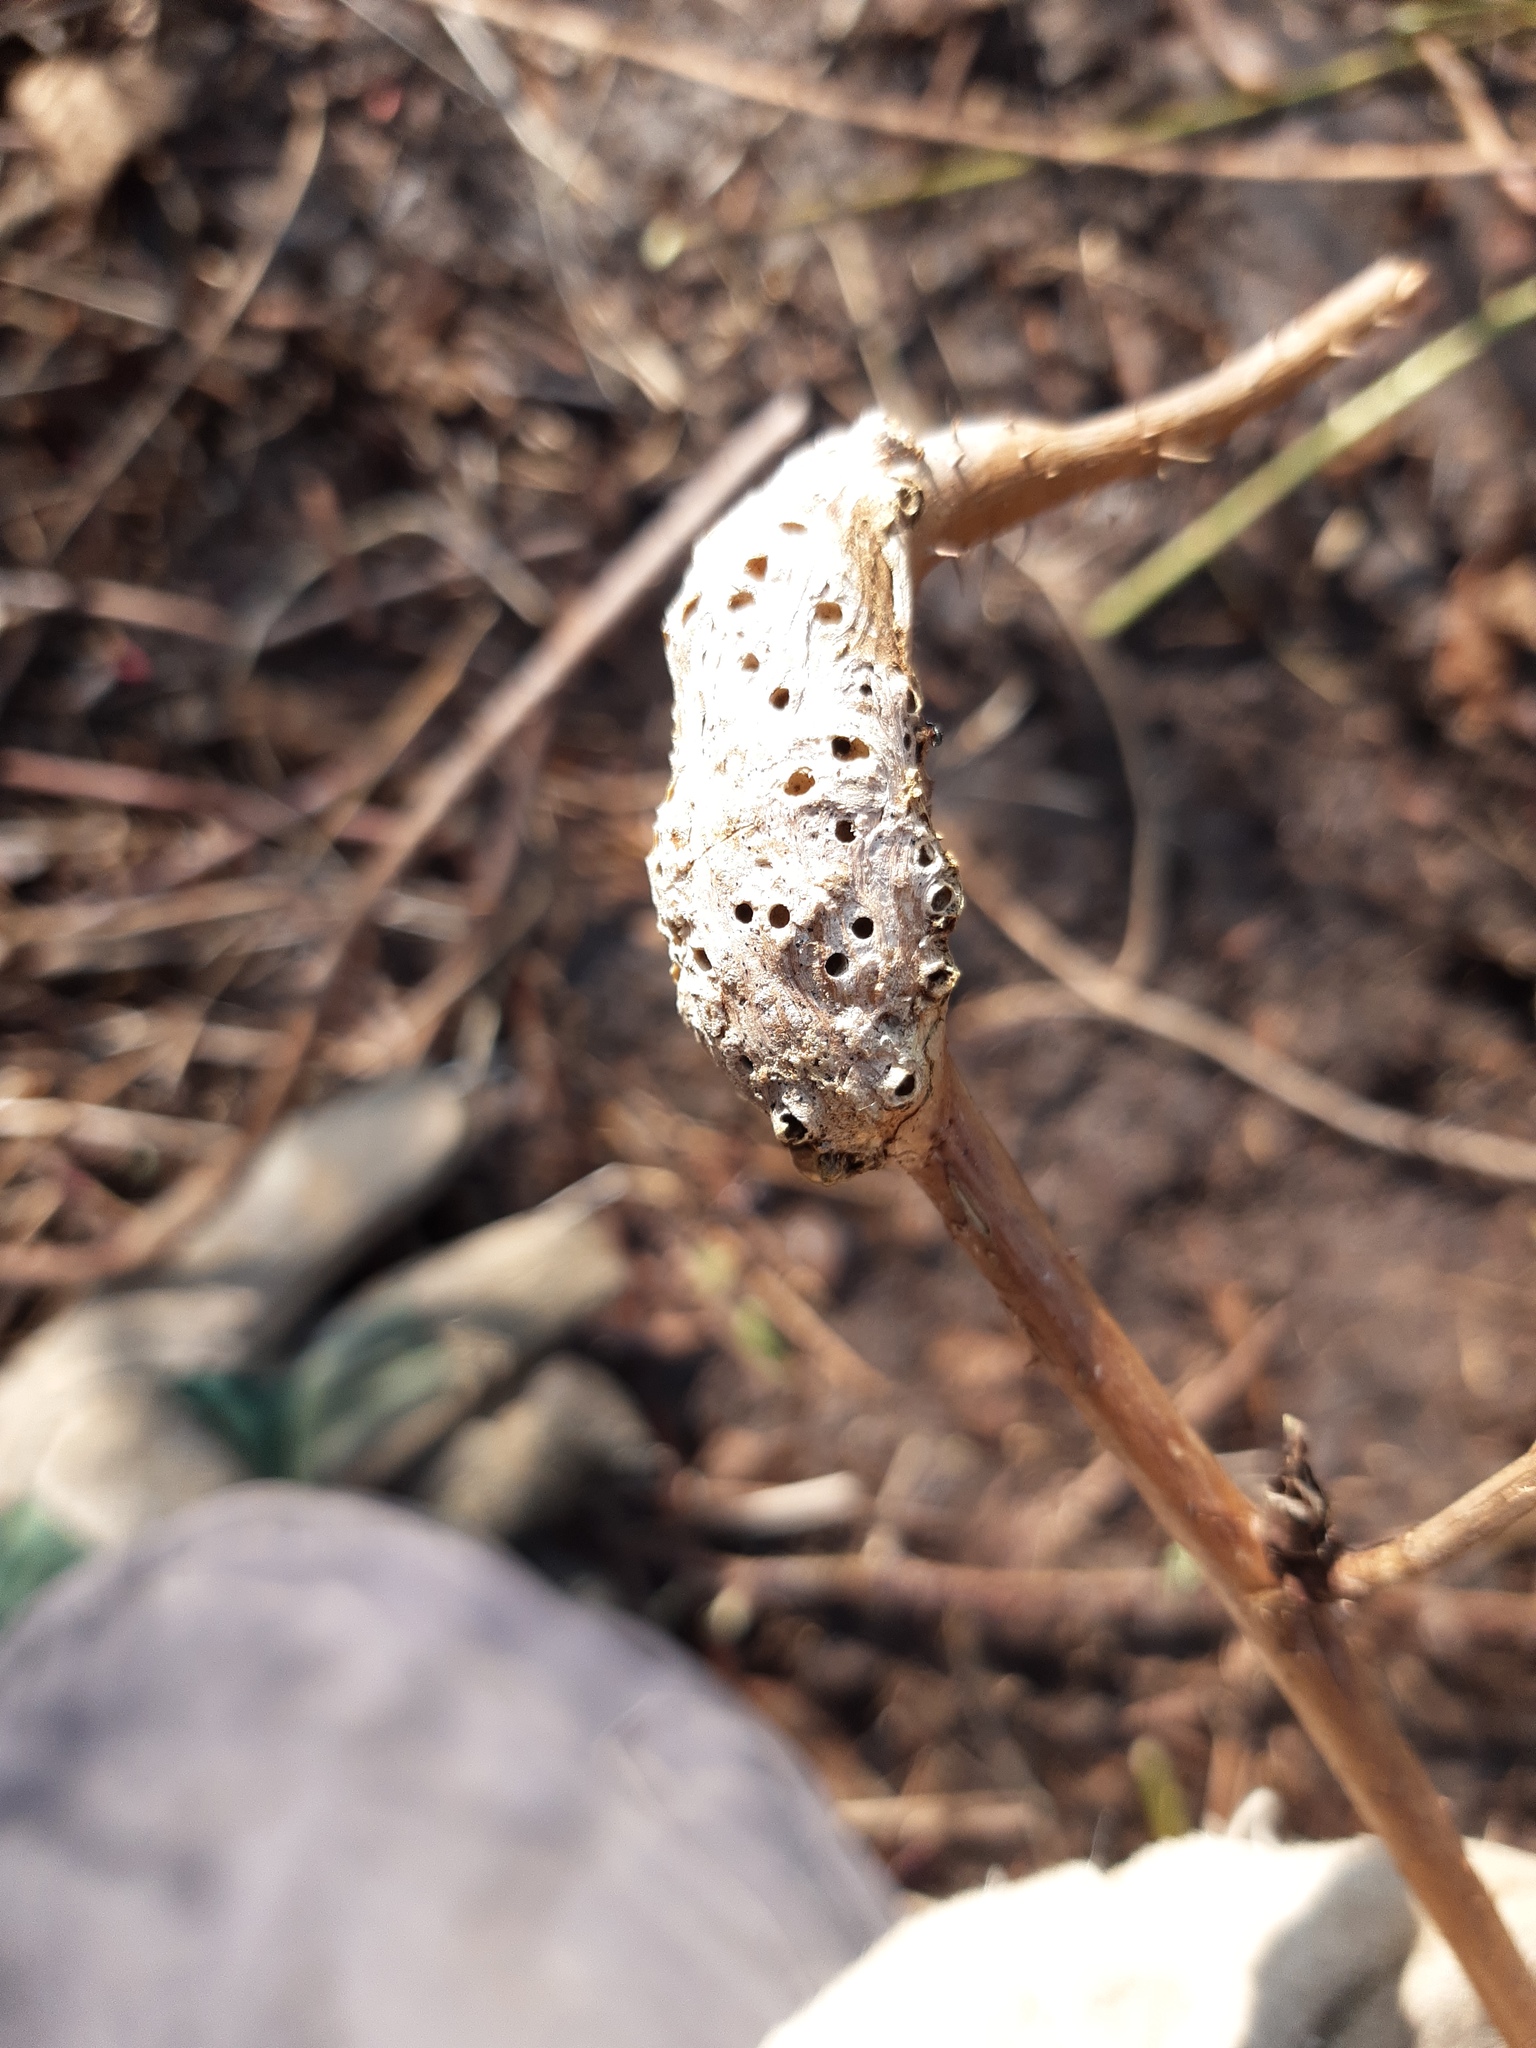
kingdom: Animalia
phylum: Arthropoda
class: Insecta
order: Hymenoptera
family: Cynipidae
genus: Diastrophus
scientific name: Diastrophus rubi
